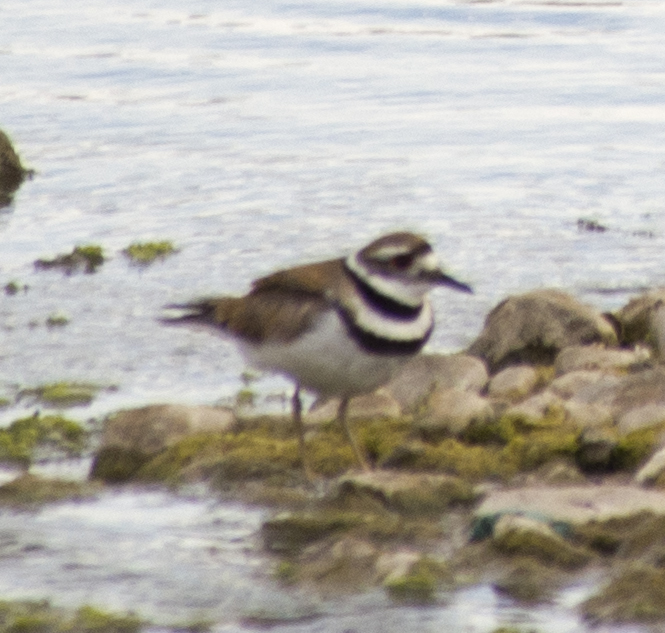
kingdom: Animalia
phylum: Chordata
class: Aves
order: Charadriiformes
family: Charadriidae
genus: Charadrius
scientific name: Charadrius vociferus
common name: Killdeer
